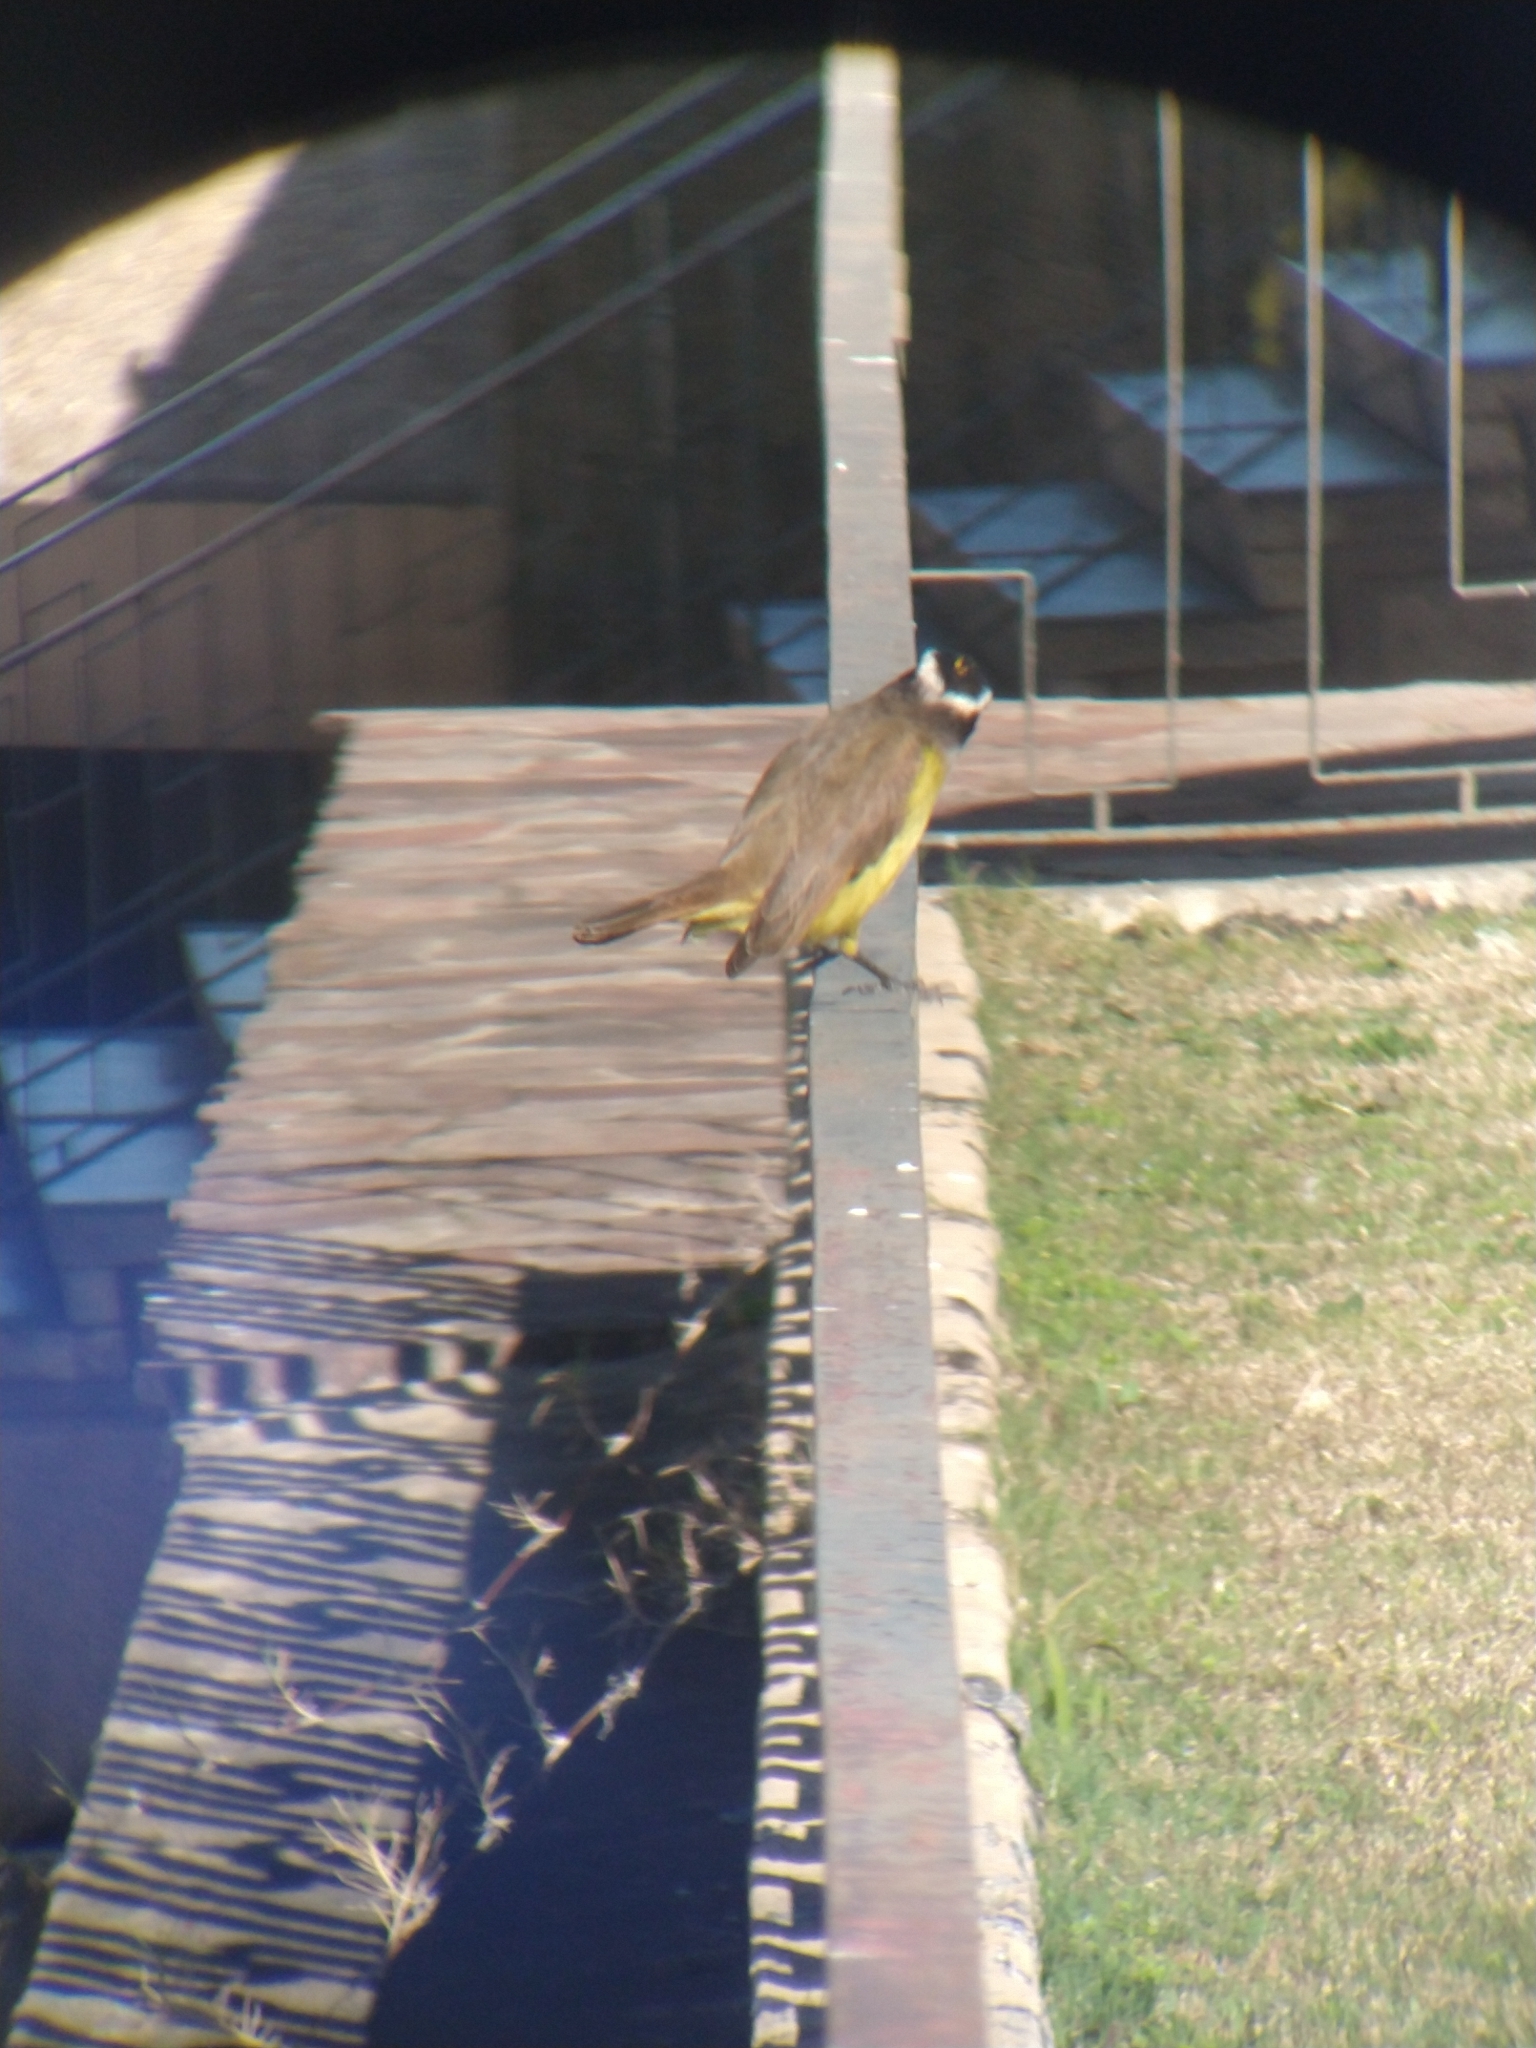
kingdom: Animalia
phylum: Chordata
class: Aves
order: Passeriformes
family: Tyrannidae
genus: Pitangus
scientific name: Pitangus sulphuratus
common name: Great kiskadee
